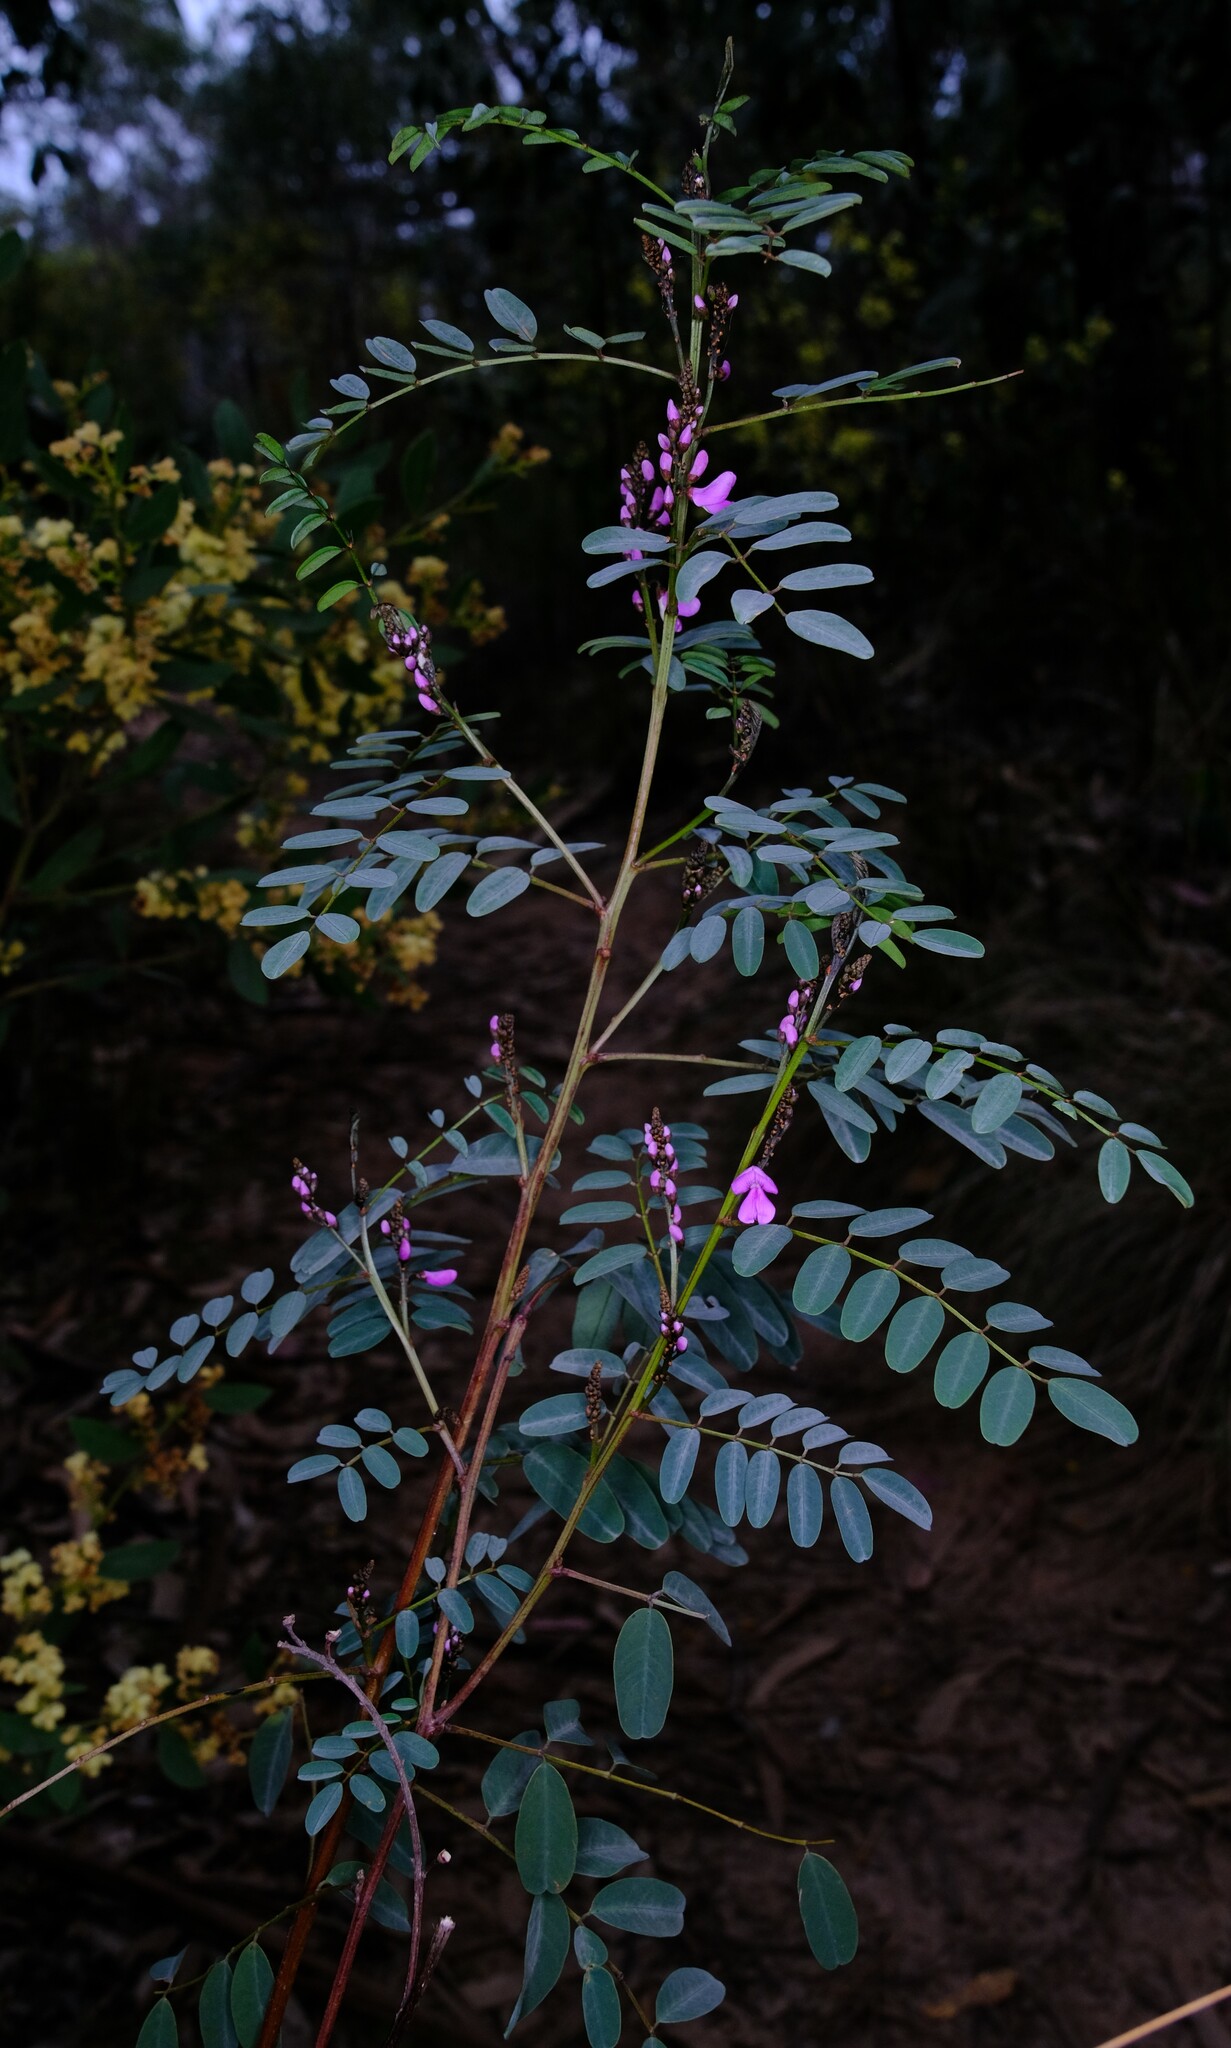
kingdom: Plantae
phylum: Tracheophyta
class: Magnoliopsida
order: Fabales
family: Fabaceae
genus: Indigofera
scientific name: Indigofera australis
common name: Australian indigo
